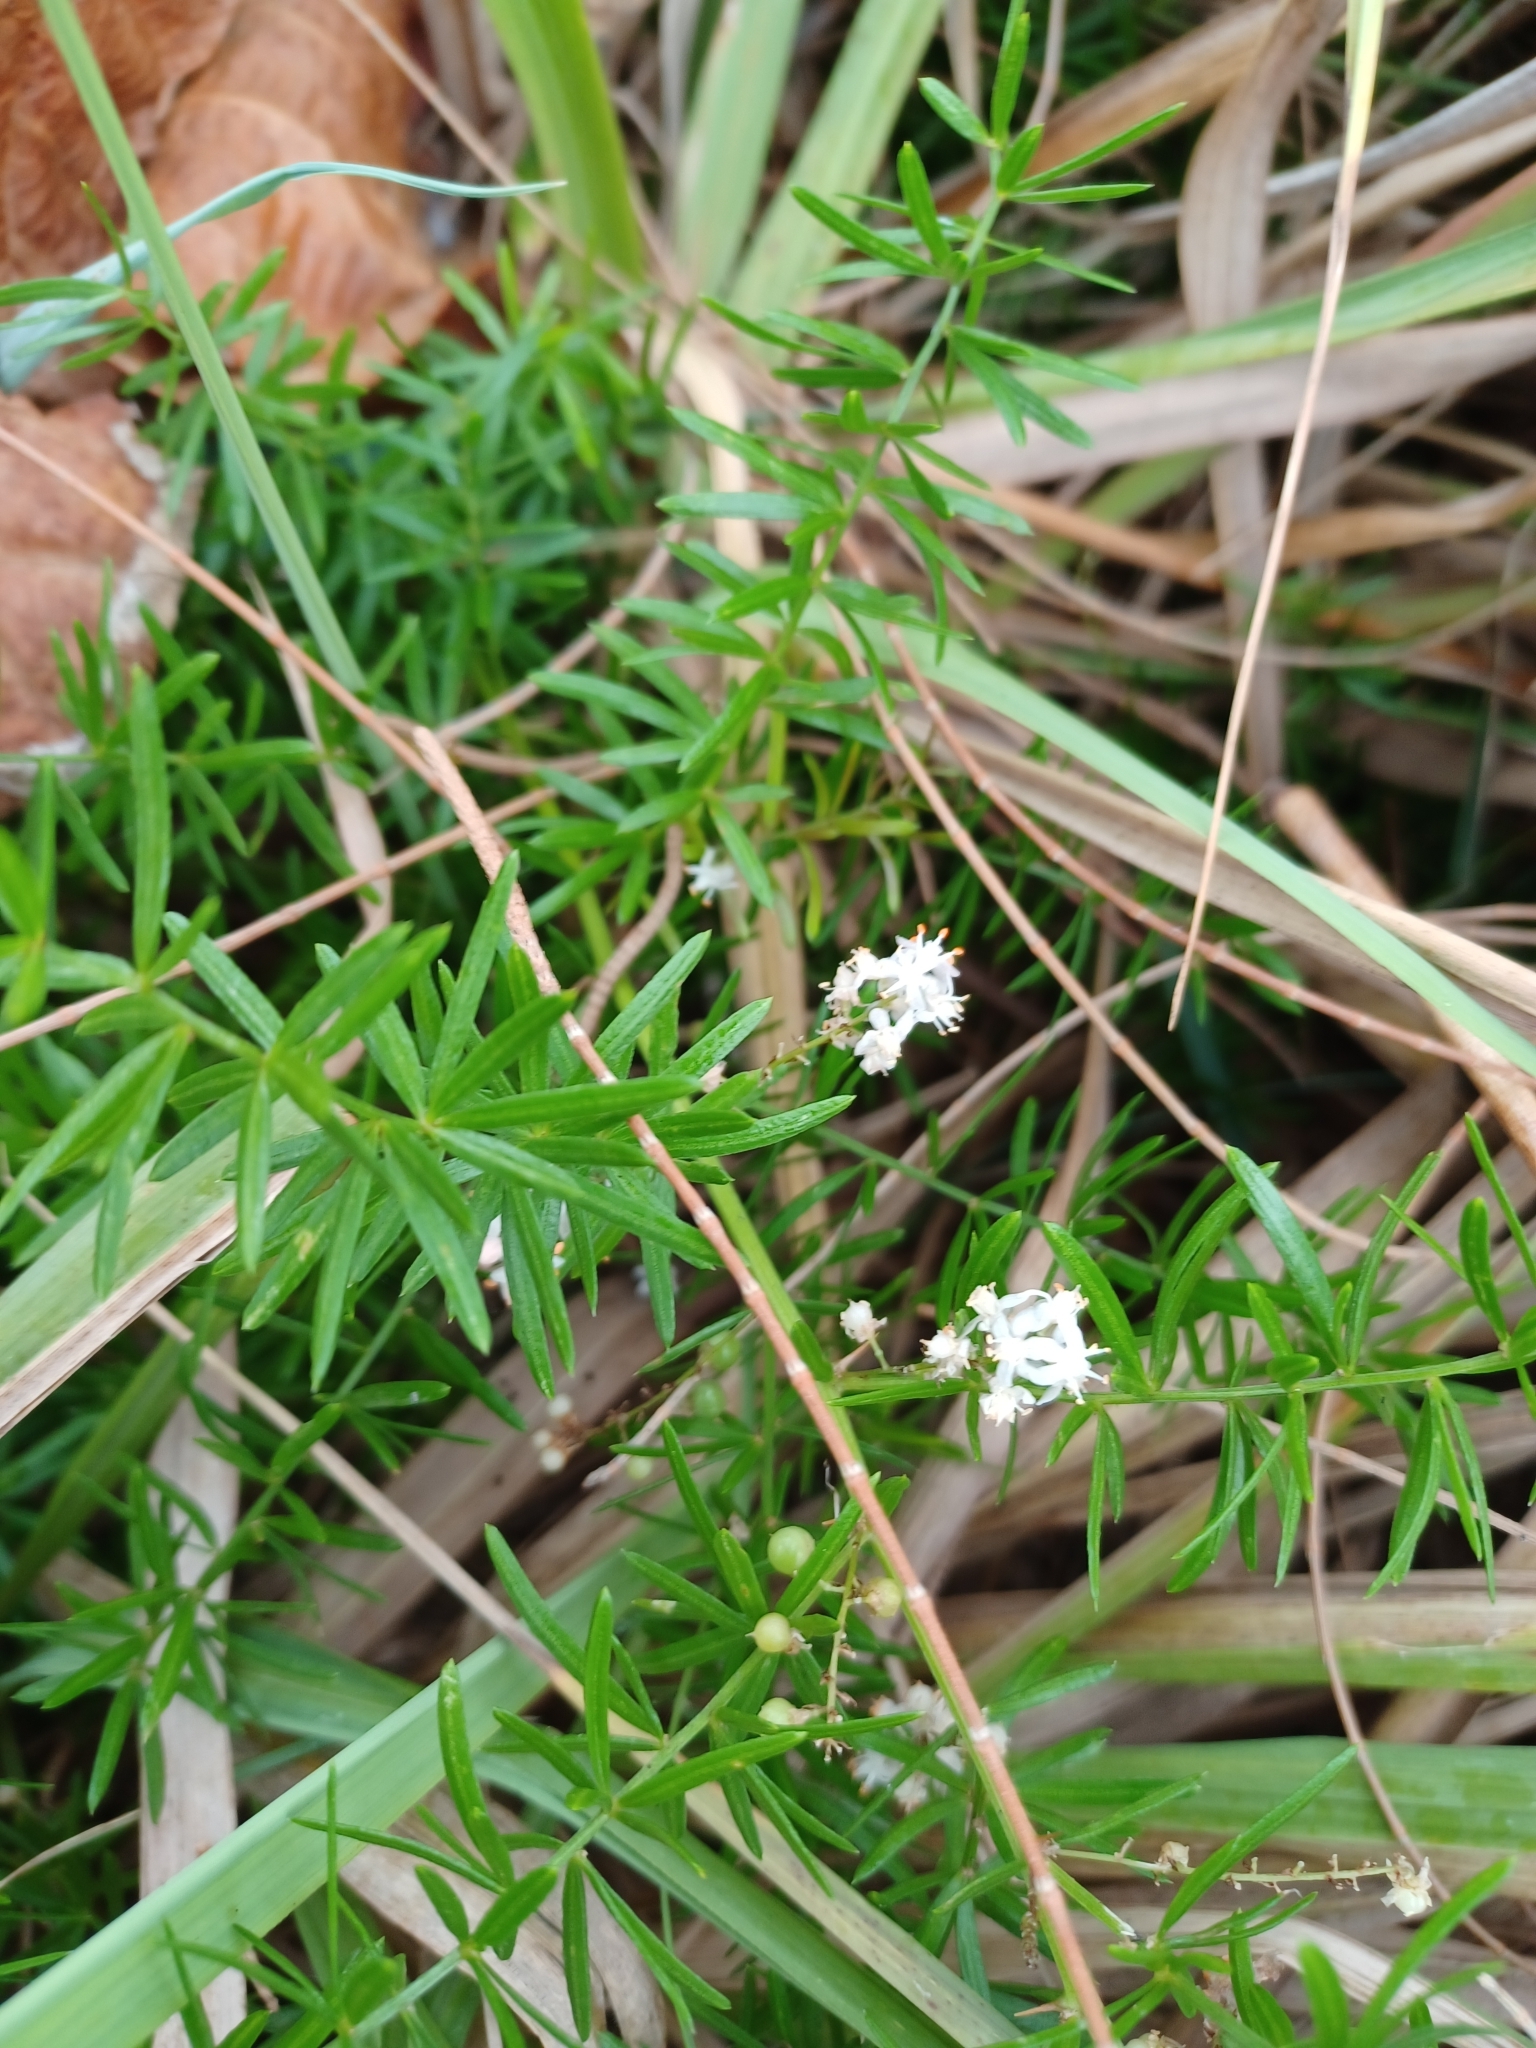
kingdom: Plantae
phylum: Tracheophyta
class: Liliopsida
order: Asparagales
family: Asparagaceae
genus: Asparagus
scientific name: Asparagus aethiopicus
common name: Sprenger's asparagus fern
